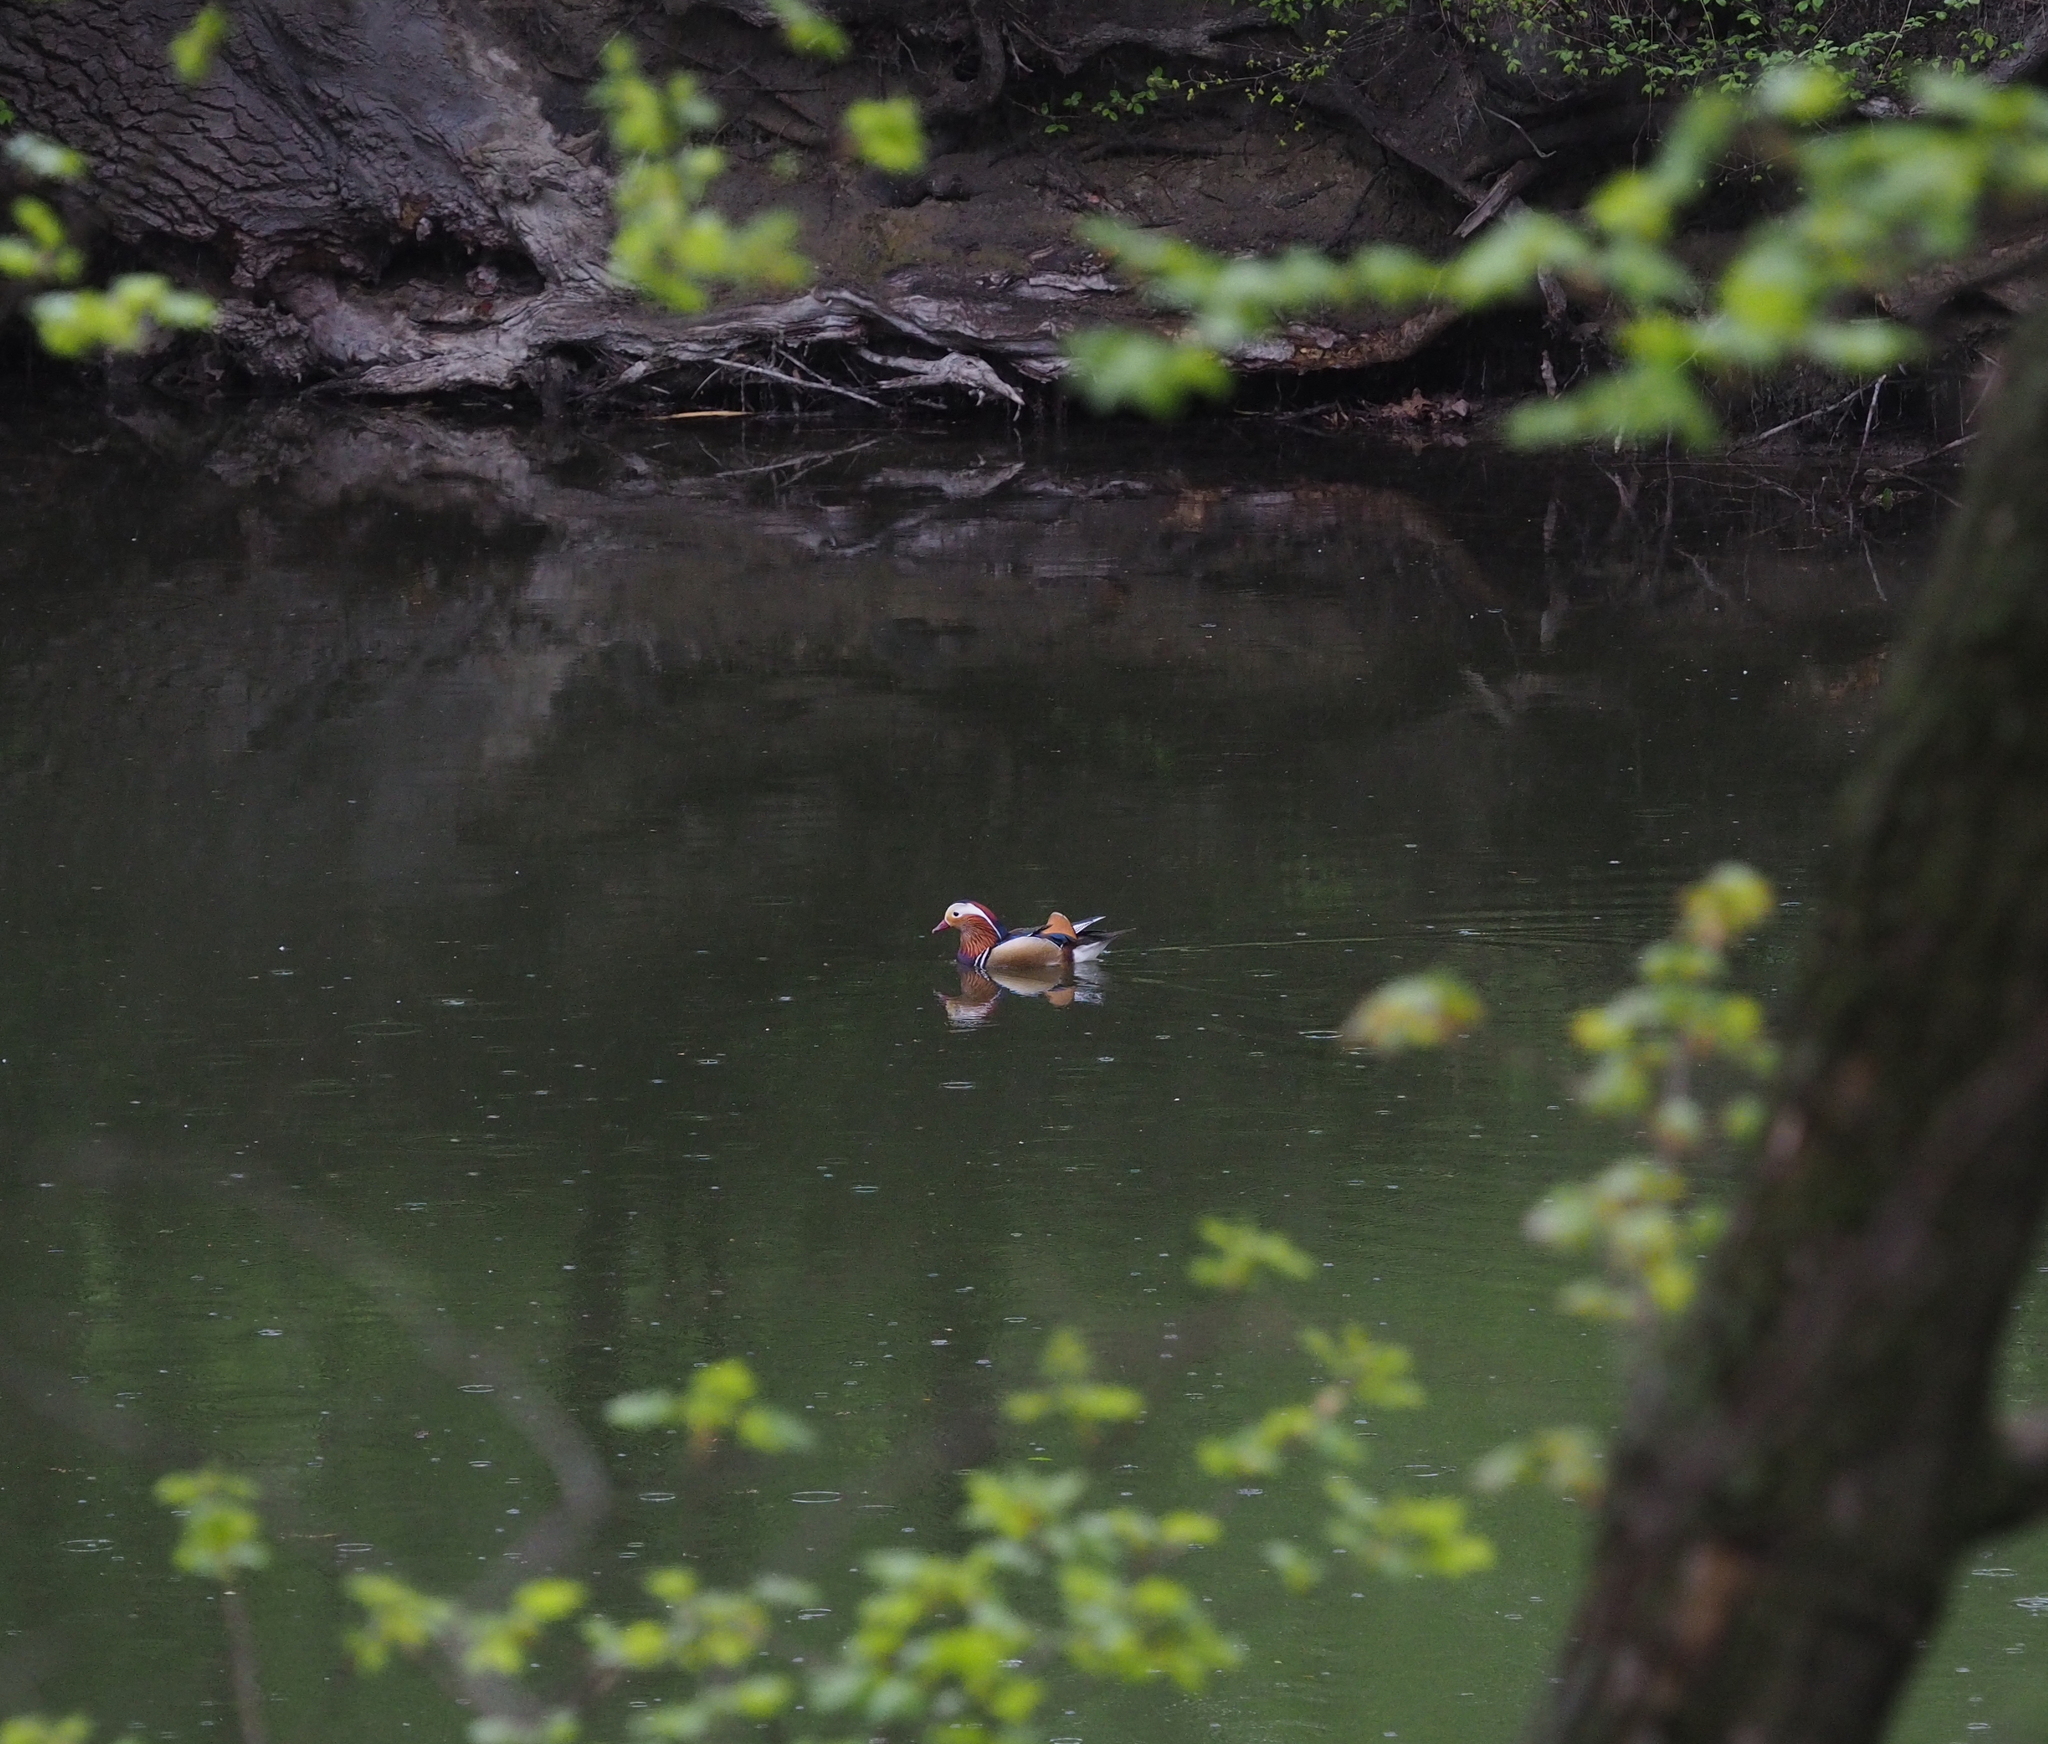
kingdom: Animalia
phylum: Chordata
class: Aves
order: Anseriformes
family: Anatidae
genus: Aix
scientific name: Aix galericulata
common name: Mandarin duck
